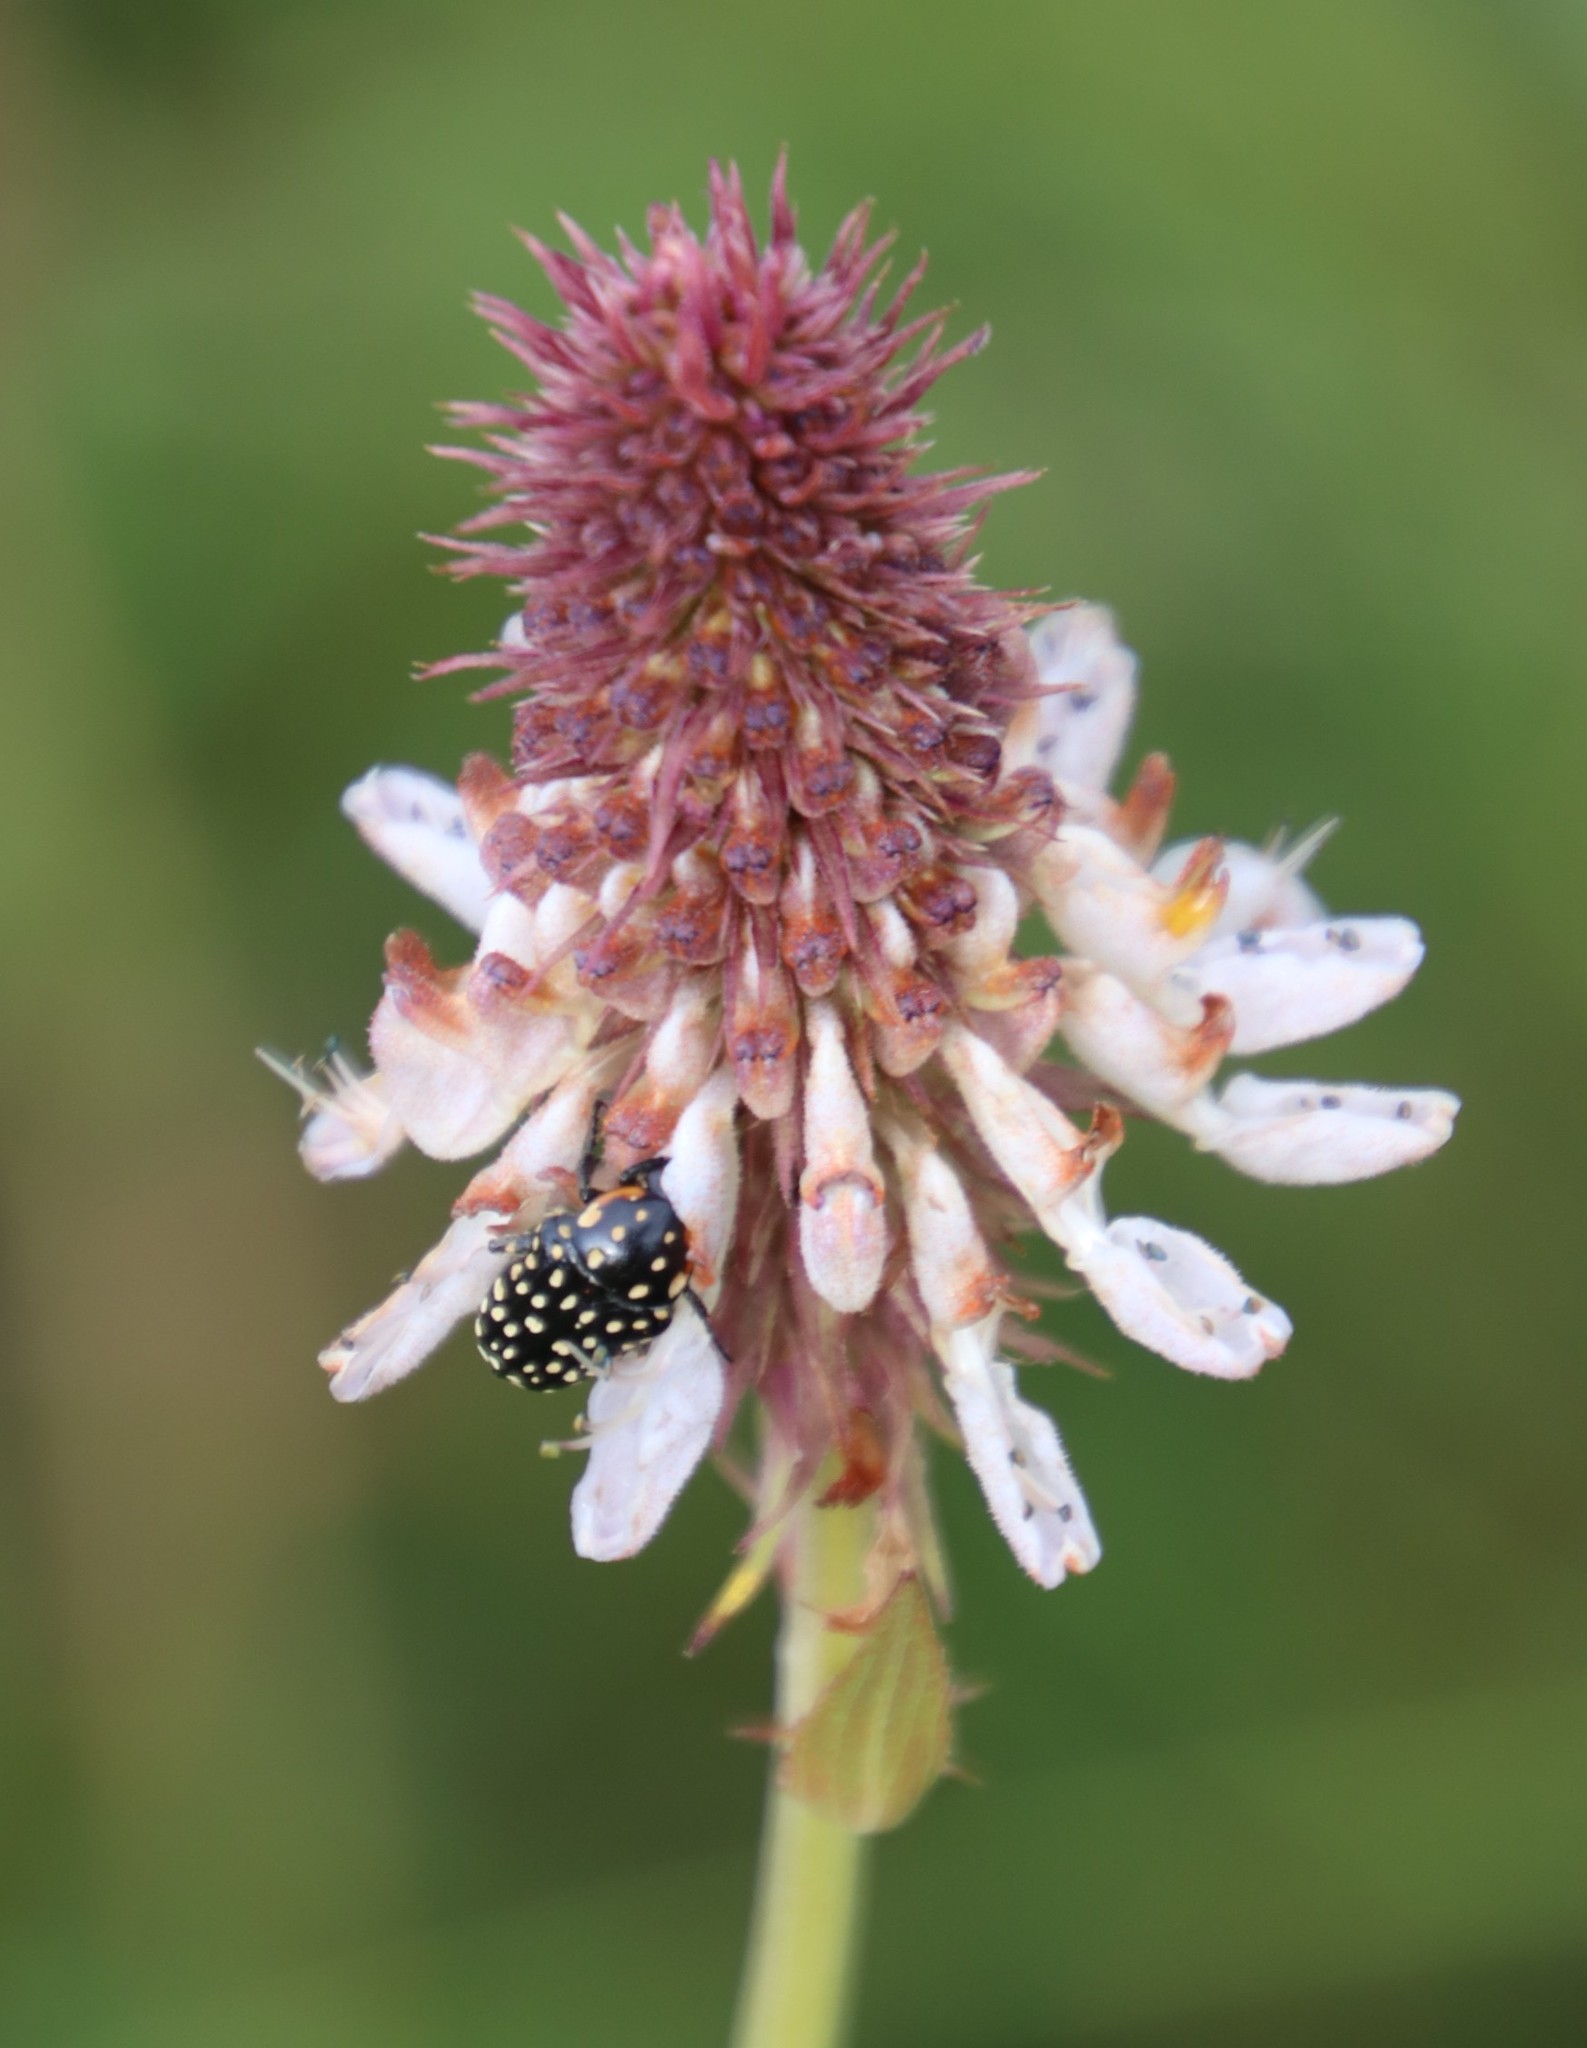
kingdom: Animalia
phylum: Arthropoda
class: Insecta
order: Coleoptera
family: Scarabaeidae
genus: Oxythyrea
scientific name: Oxythyrea
